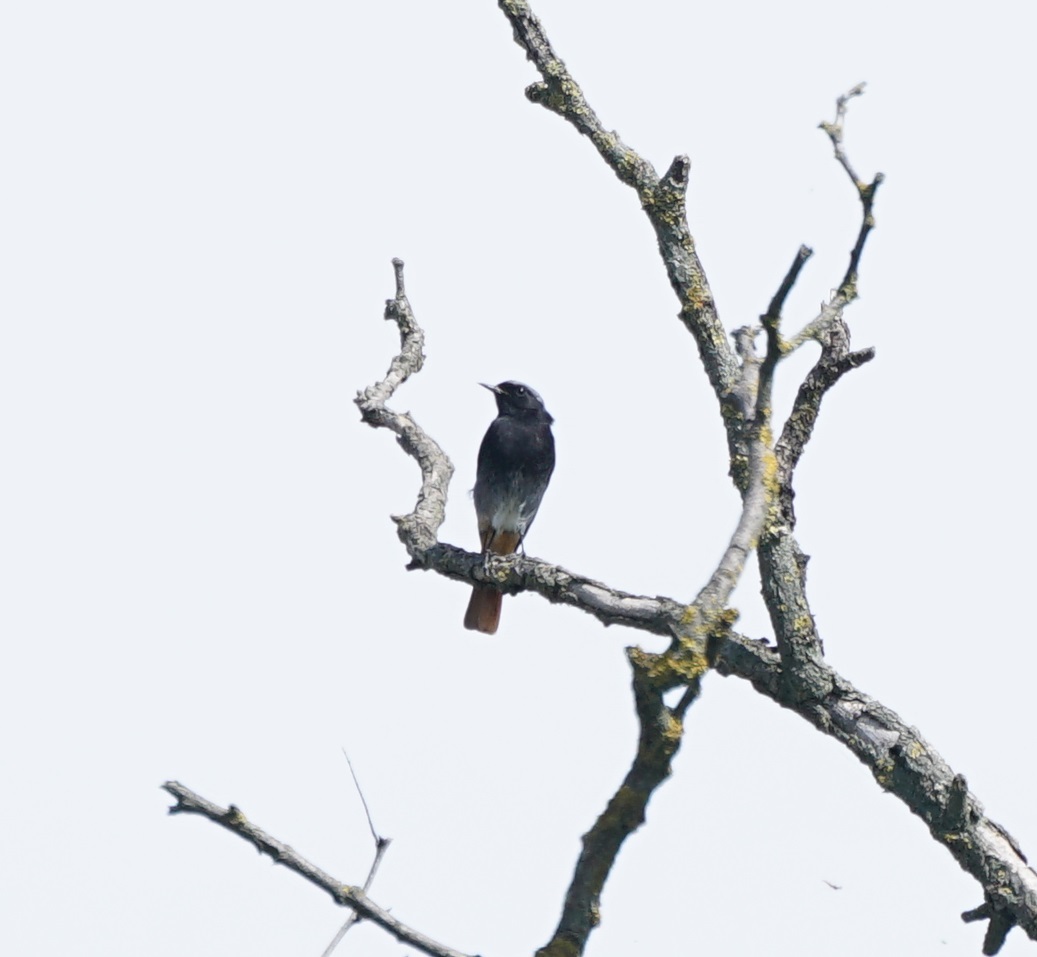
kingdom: Animalia
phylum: Chordata
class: Aves
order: Passeriformes
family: Muscicapidae
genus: Phoenicurus
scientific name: Phoenicurus ochruros
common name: Black redstart
